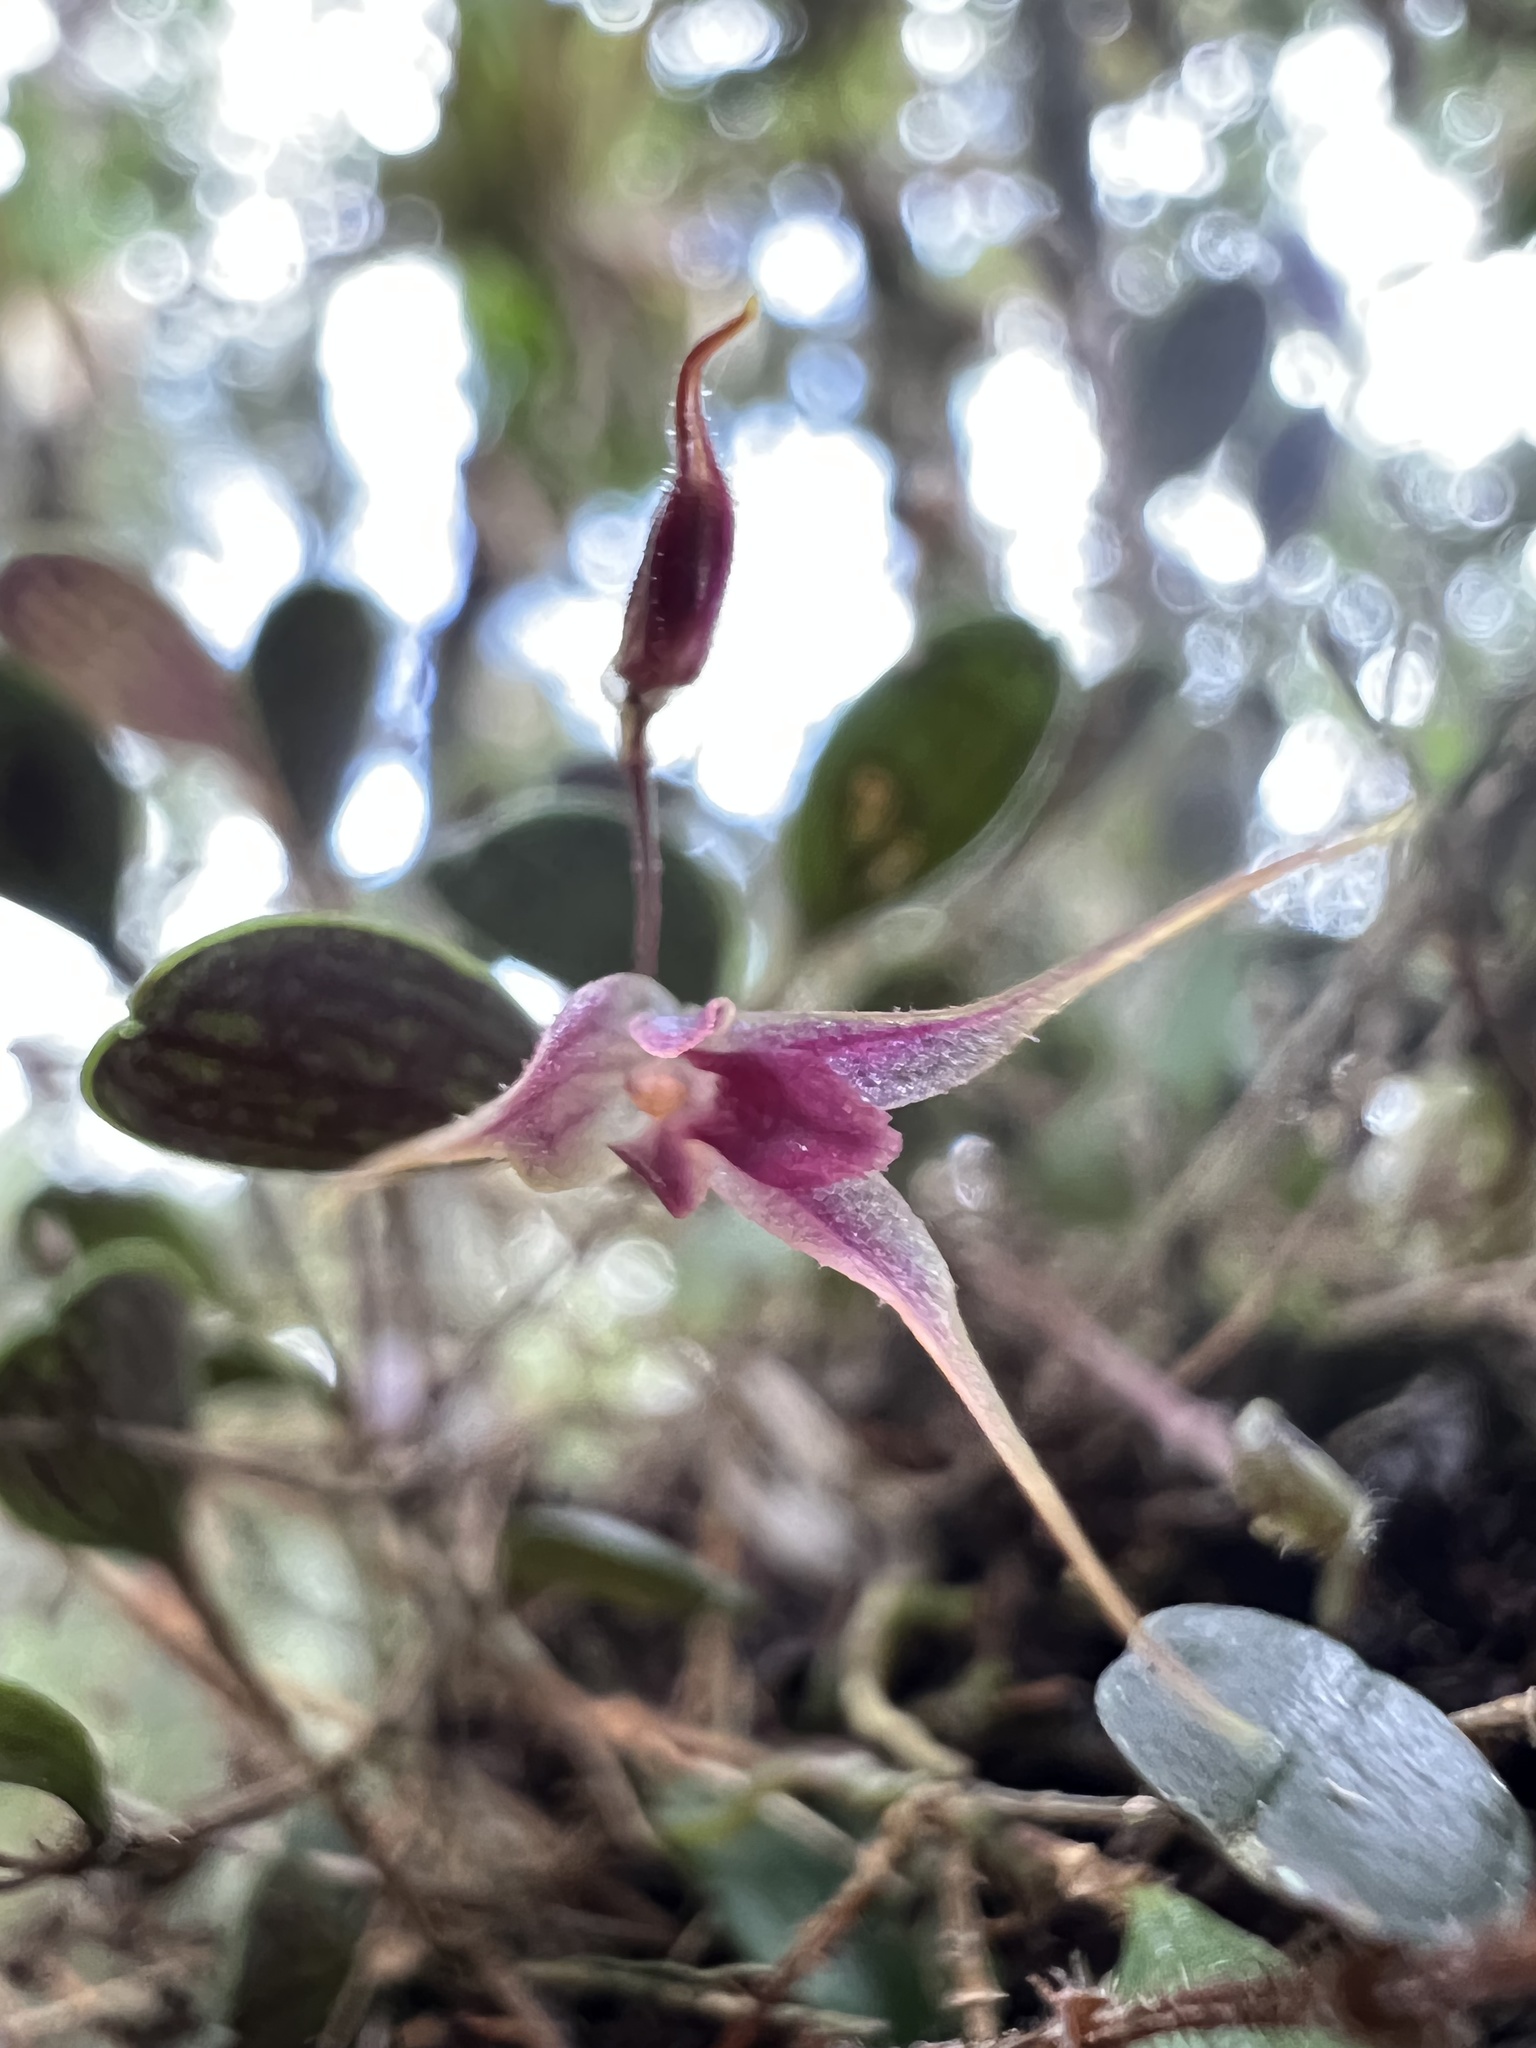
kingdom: Plantae
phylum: Tracheophyta
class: Liliopsida
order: Asparagales
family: Orchidaceae
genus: Gravendeelia
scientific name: Gravendeelia chamaelepanthes
